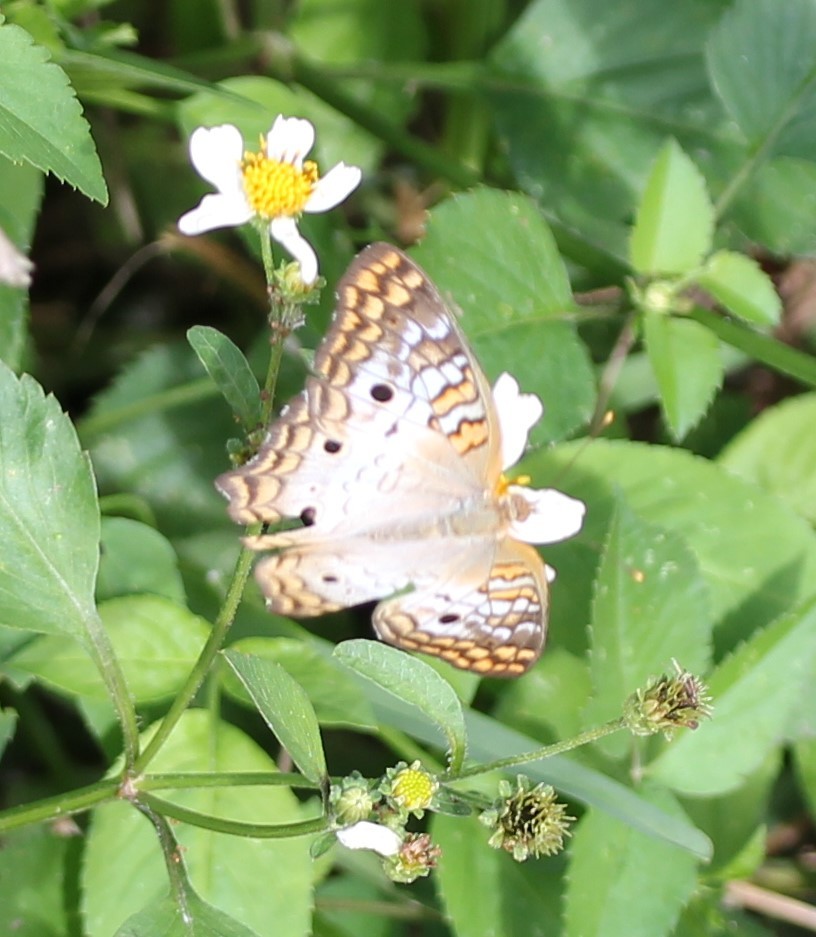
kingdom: Animalia
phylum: Arthropoda
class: Insecta
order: Lepidoptera
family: Nymphalidae
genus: Anartia
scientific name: Anartia jatrophae
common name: White peacock
